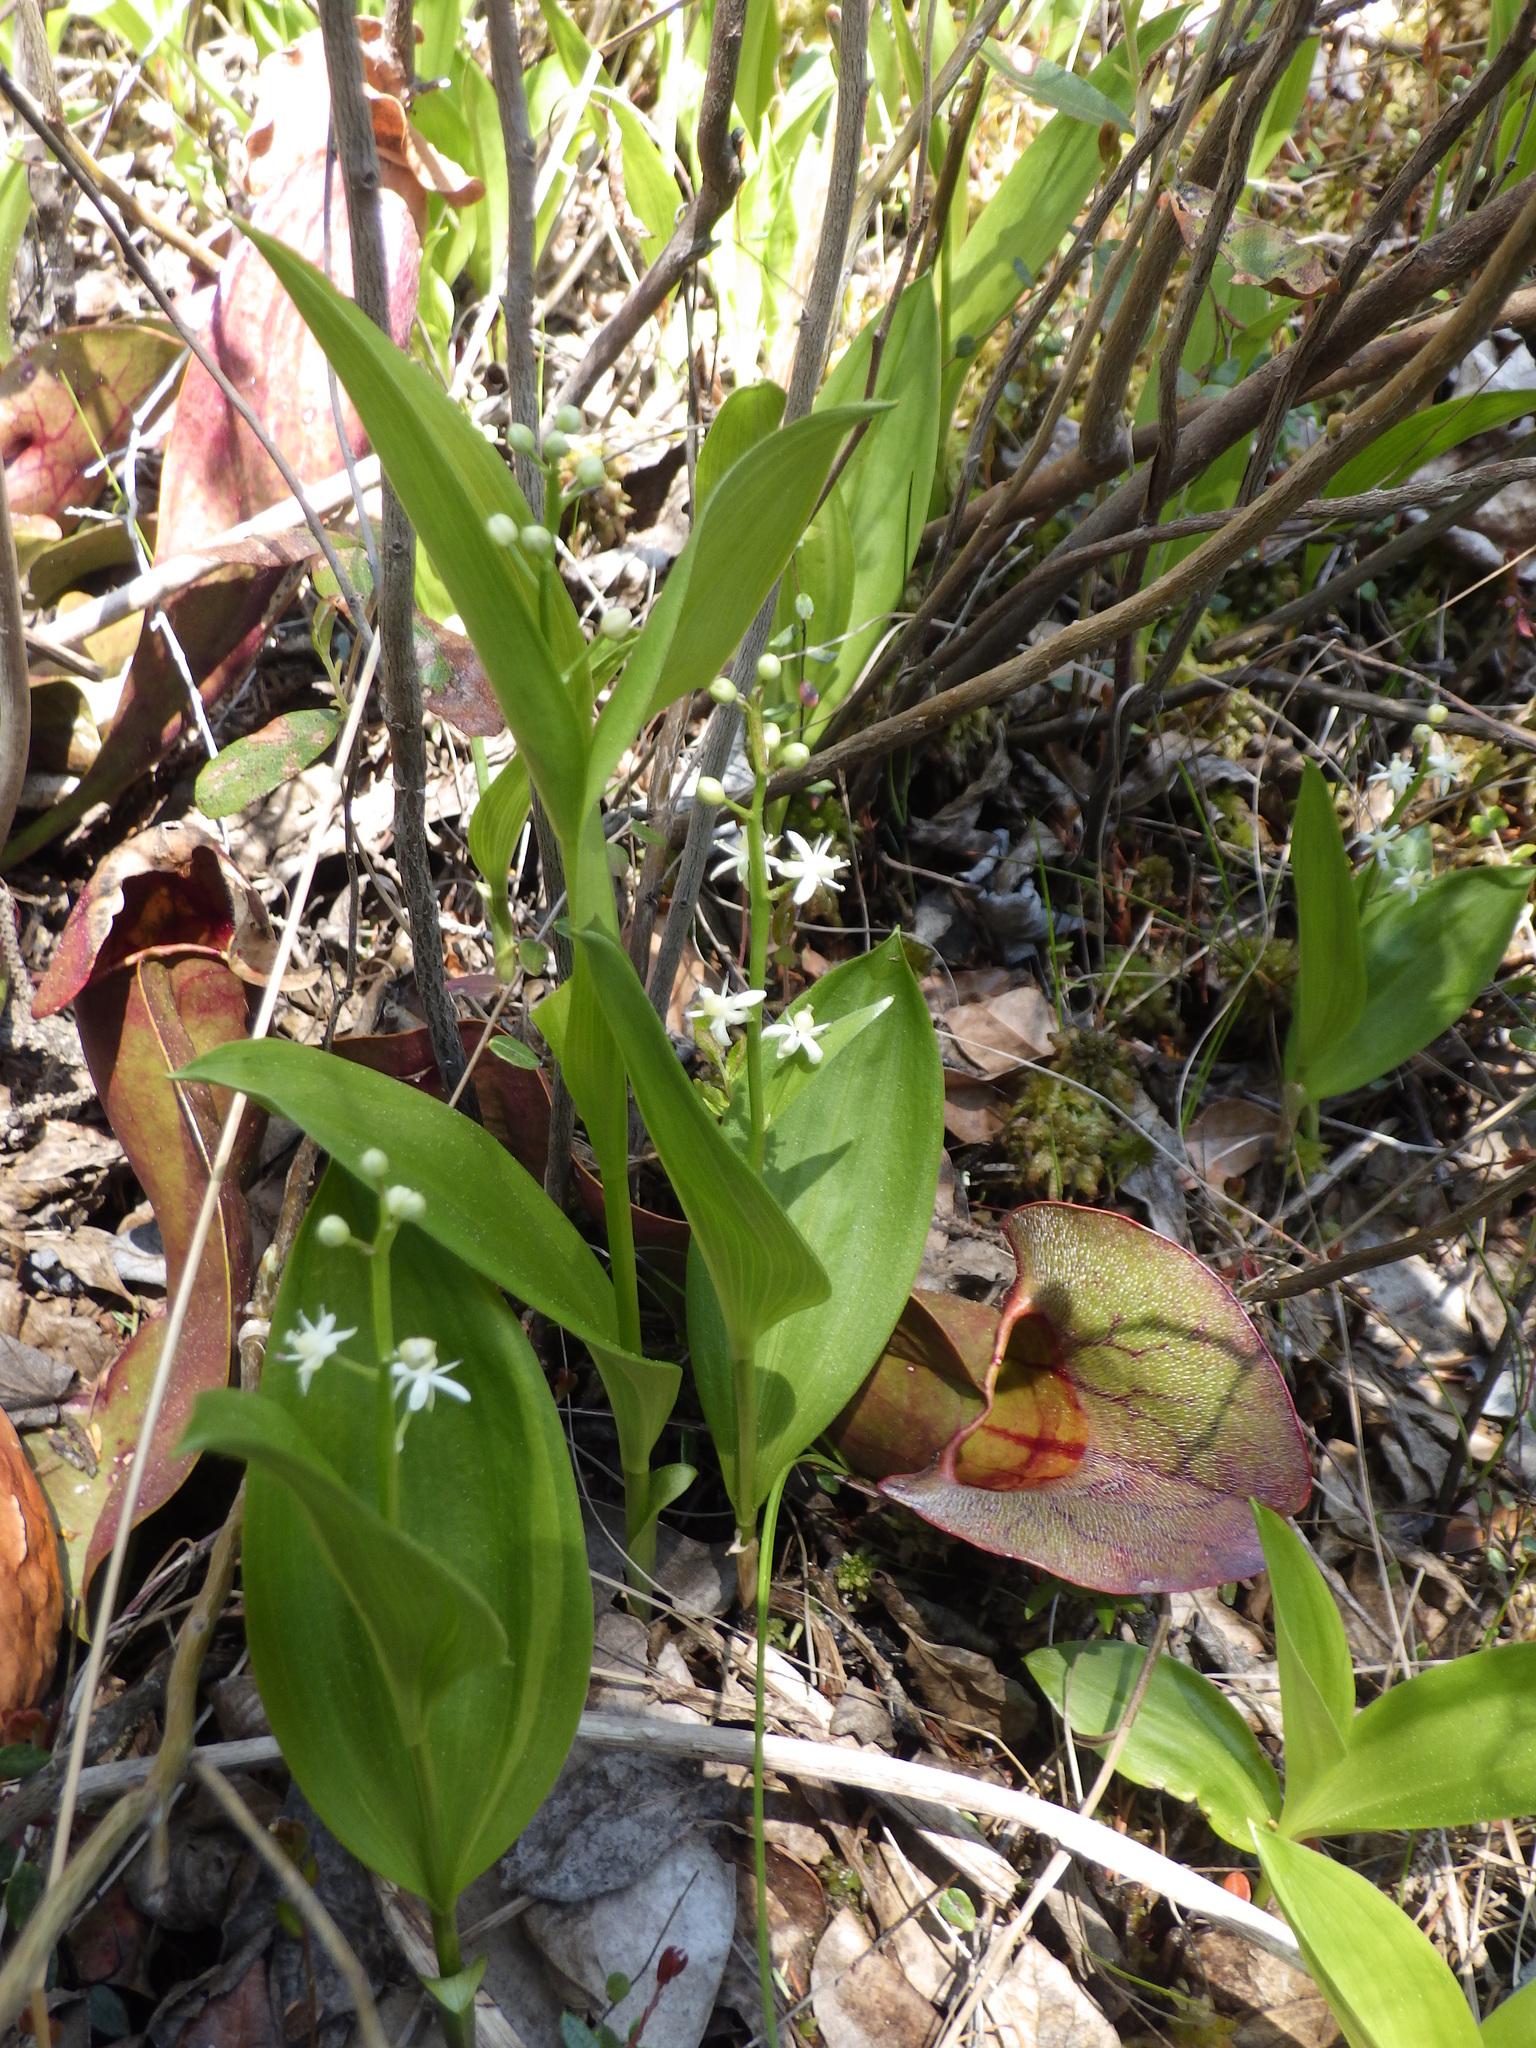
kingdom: Plantae
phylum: Tracheophyta
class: Liliopsida
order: Asparagales
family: Asparagaceae
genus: Maianthemum
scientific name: Maianthemum trifolium
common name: Swamp false solomon's seal
